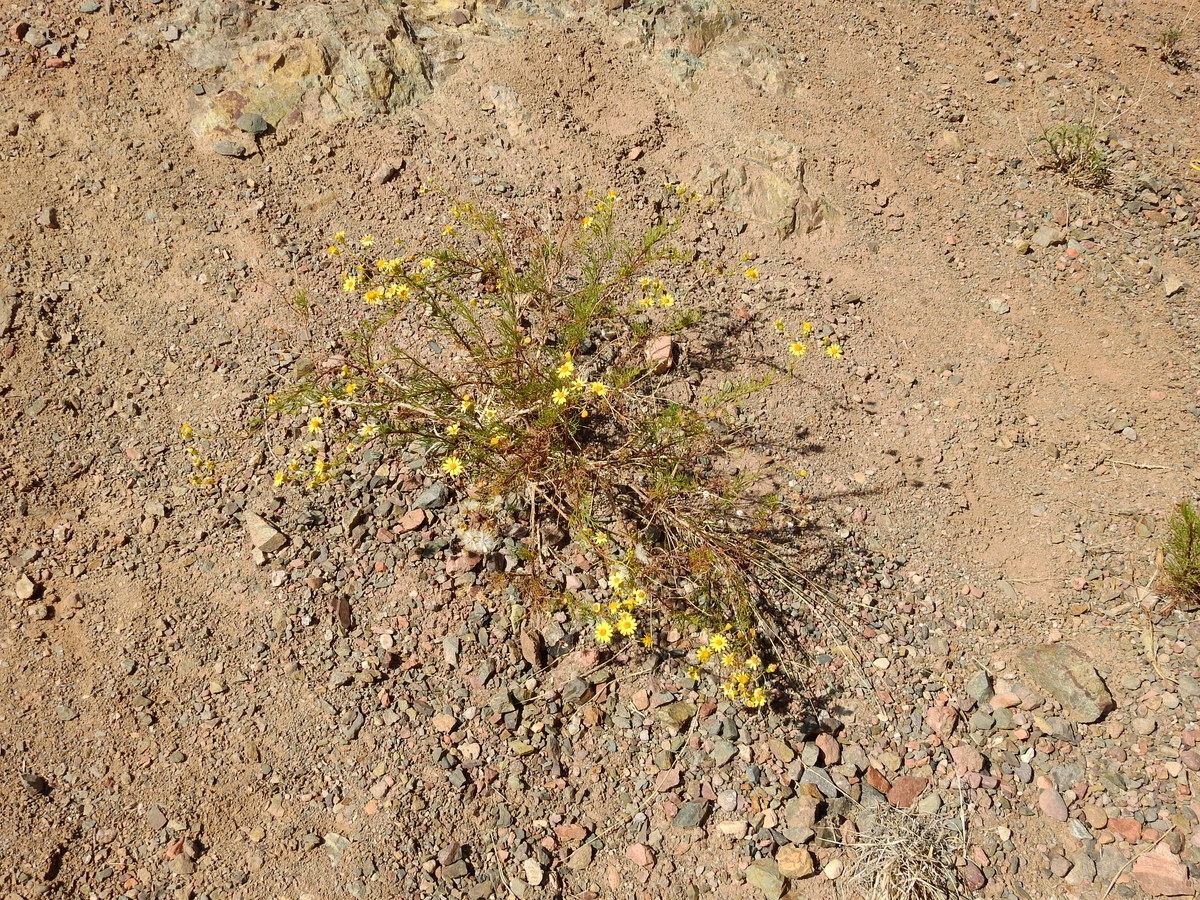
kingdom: Plantae
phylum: Tracheophyta
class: Magnoliopsida
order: Asterales
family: Asteraceae
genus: Senecio
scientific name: Senecio subulatus
